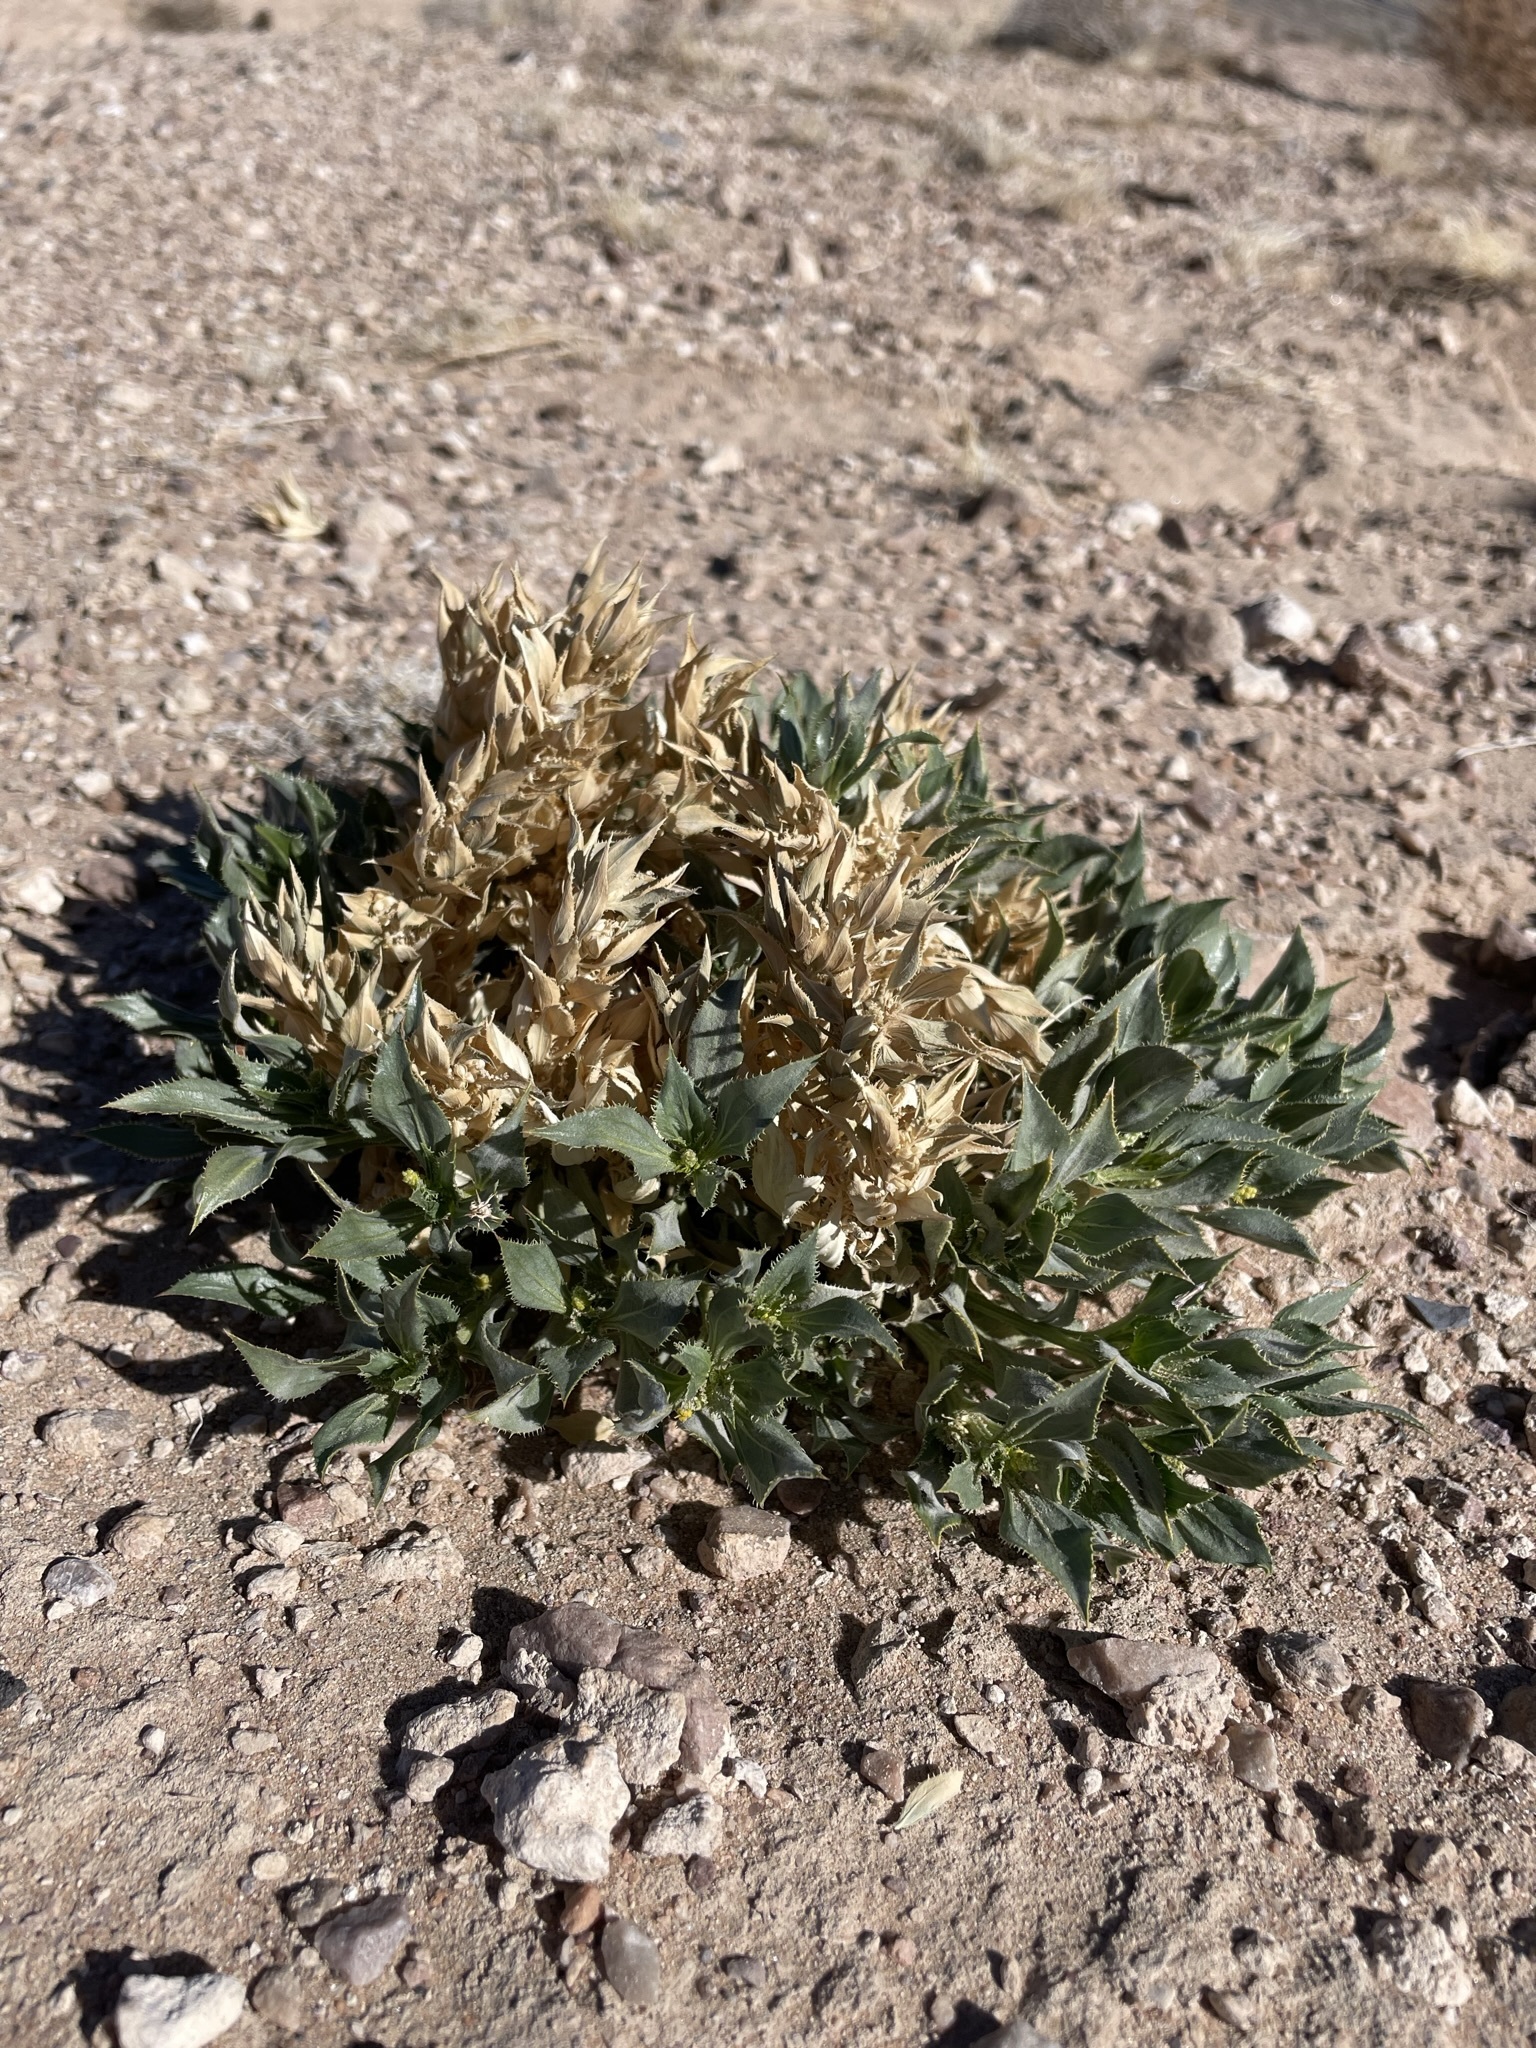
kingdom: Plantae
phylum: Tracheophyta
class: Magnoliopsida
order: Malpighiales
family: Euphorbiaceae
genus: Stillingia
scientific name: Stillingia spinulosa
